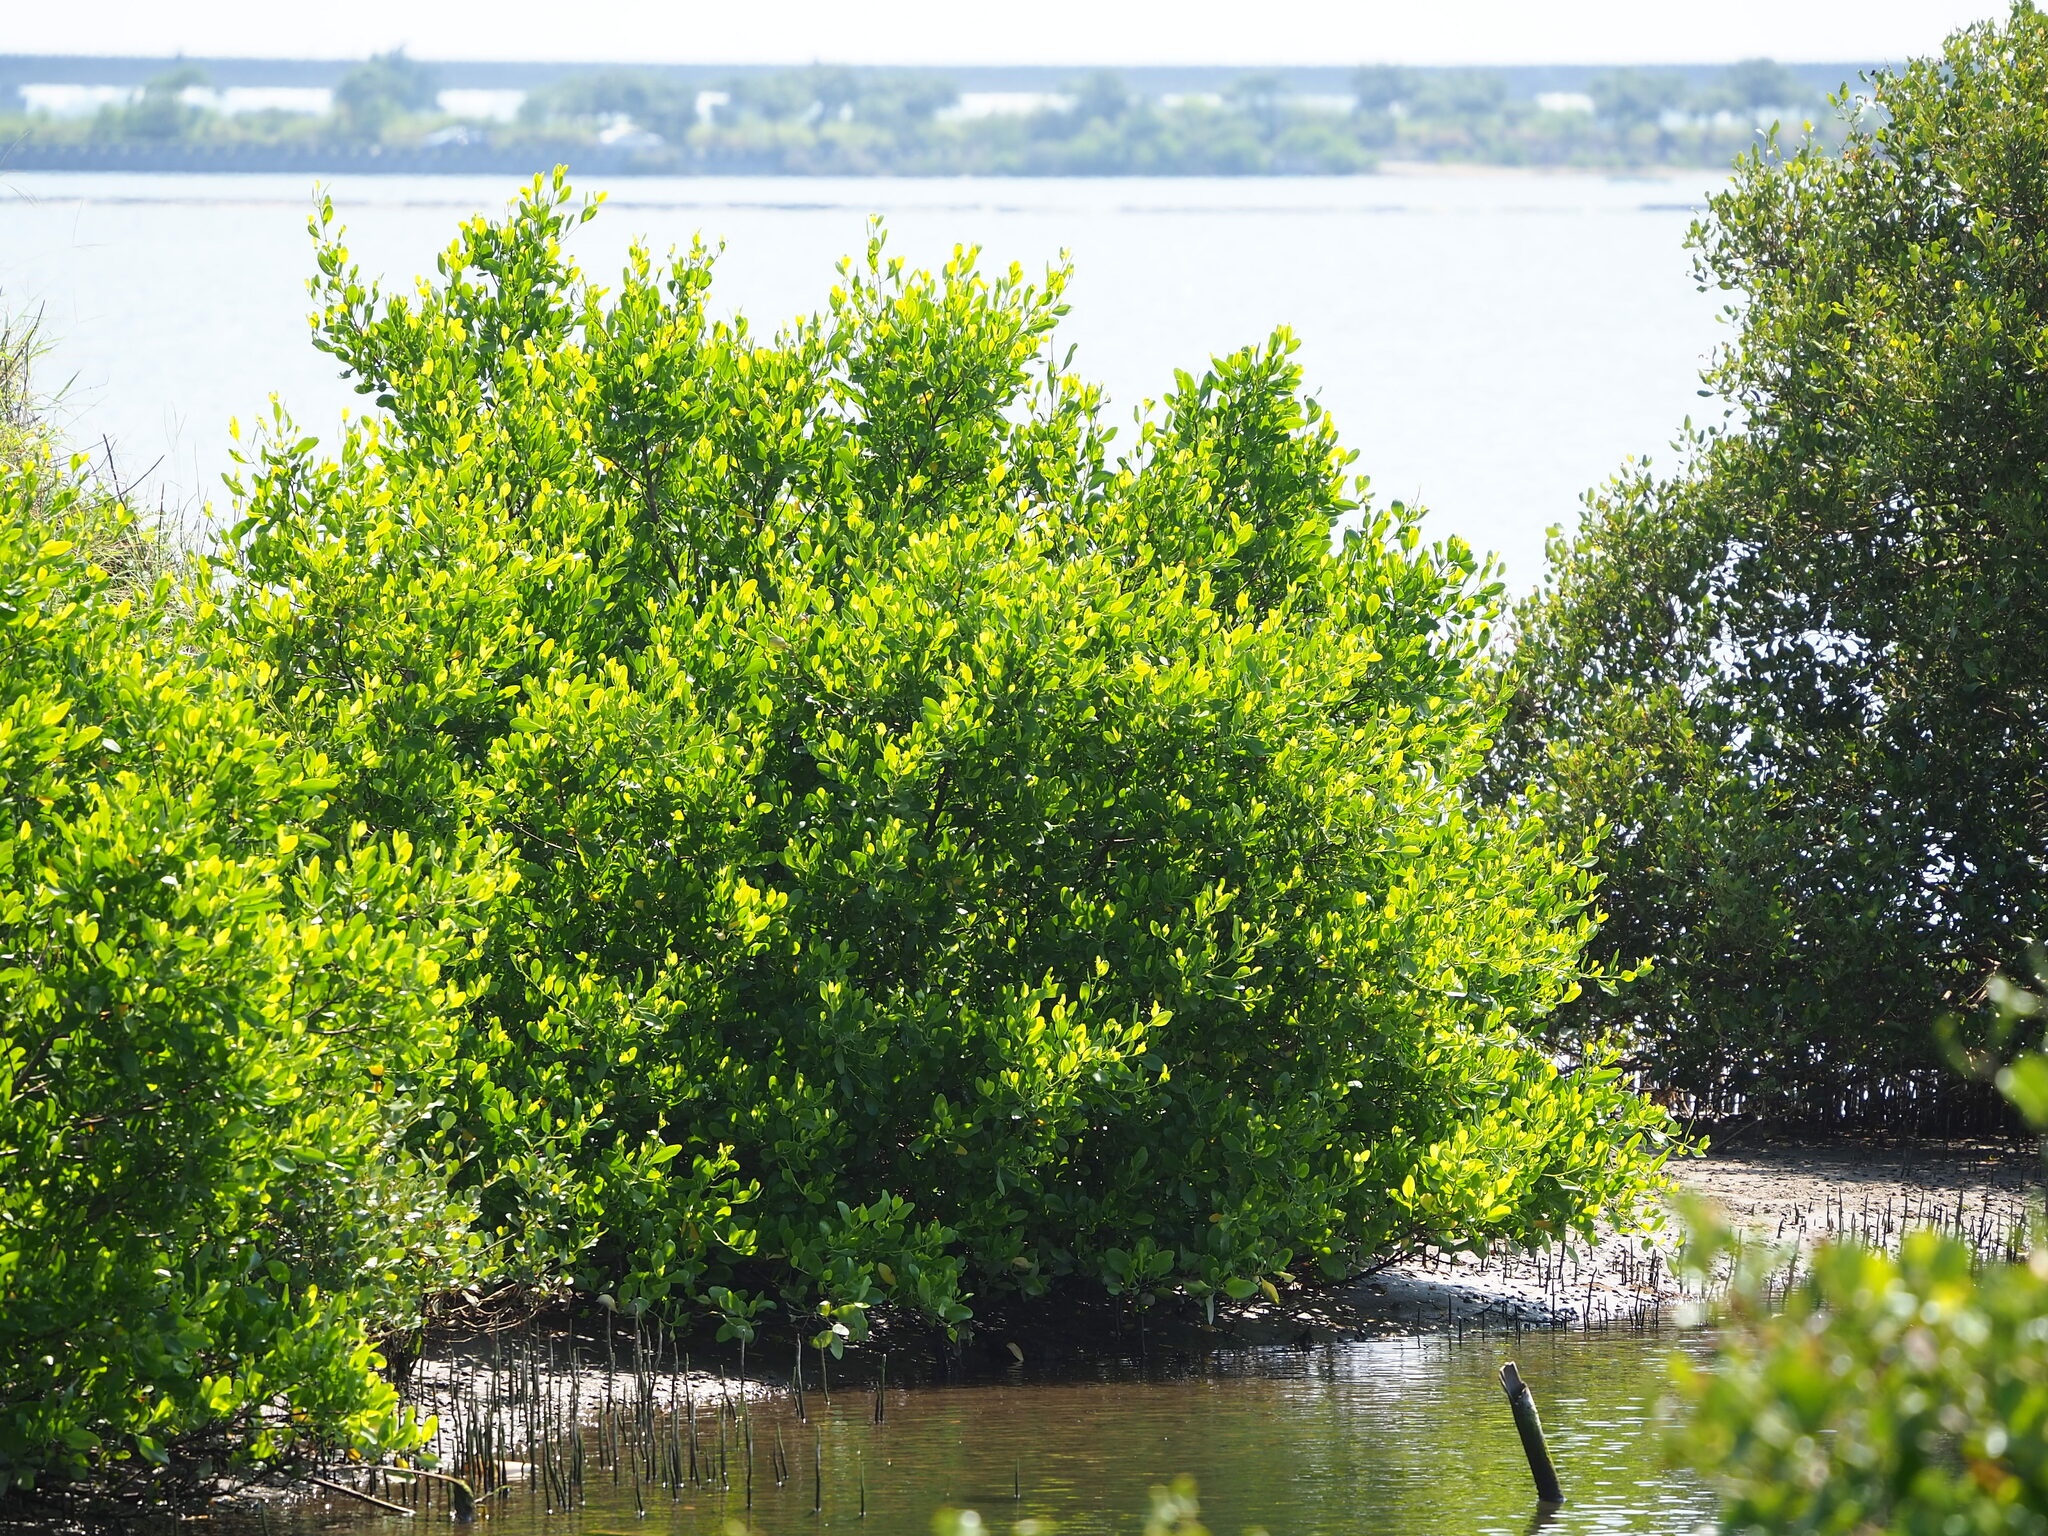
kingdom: Plantae
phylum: Tracheophyta
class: Magnoliopsida
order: Myrtales
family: Combretaceae
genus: Lumnitzera
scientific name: Lumnitzera racemosa
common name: White-flowered black mangrove
